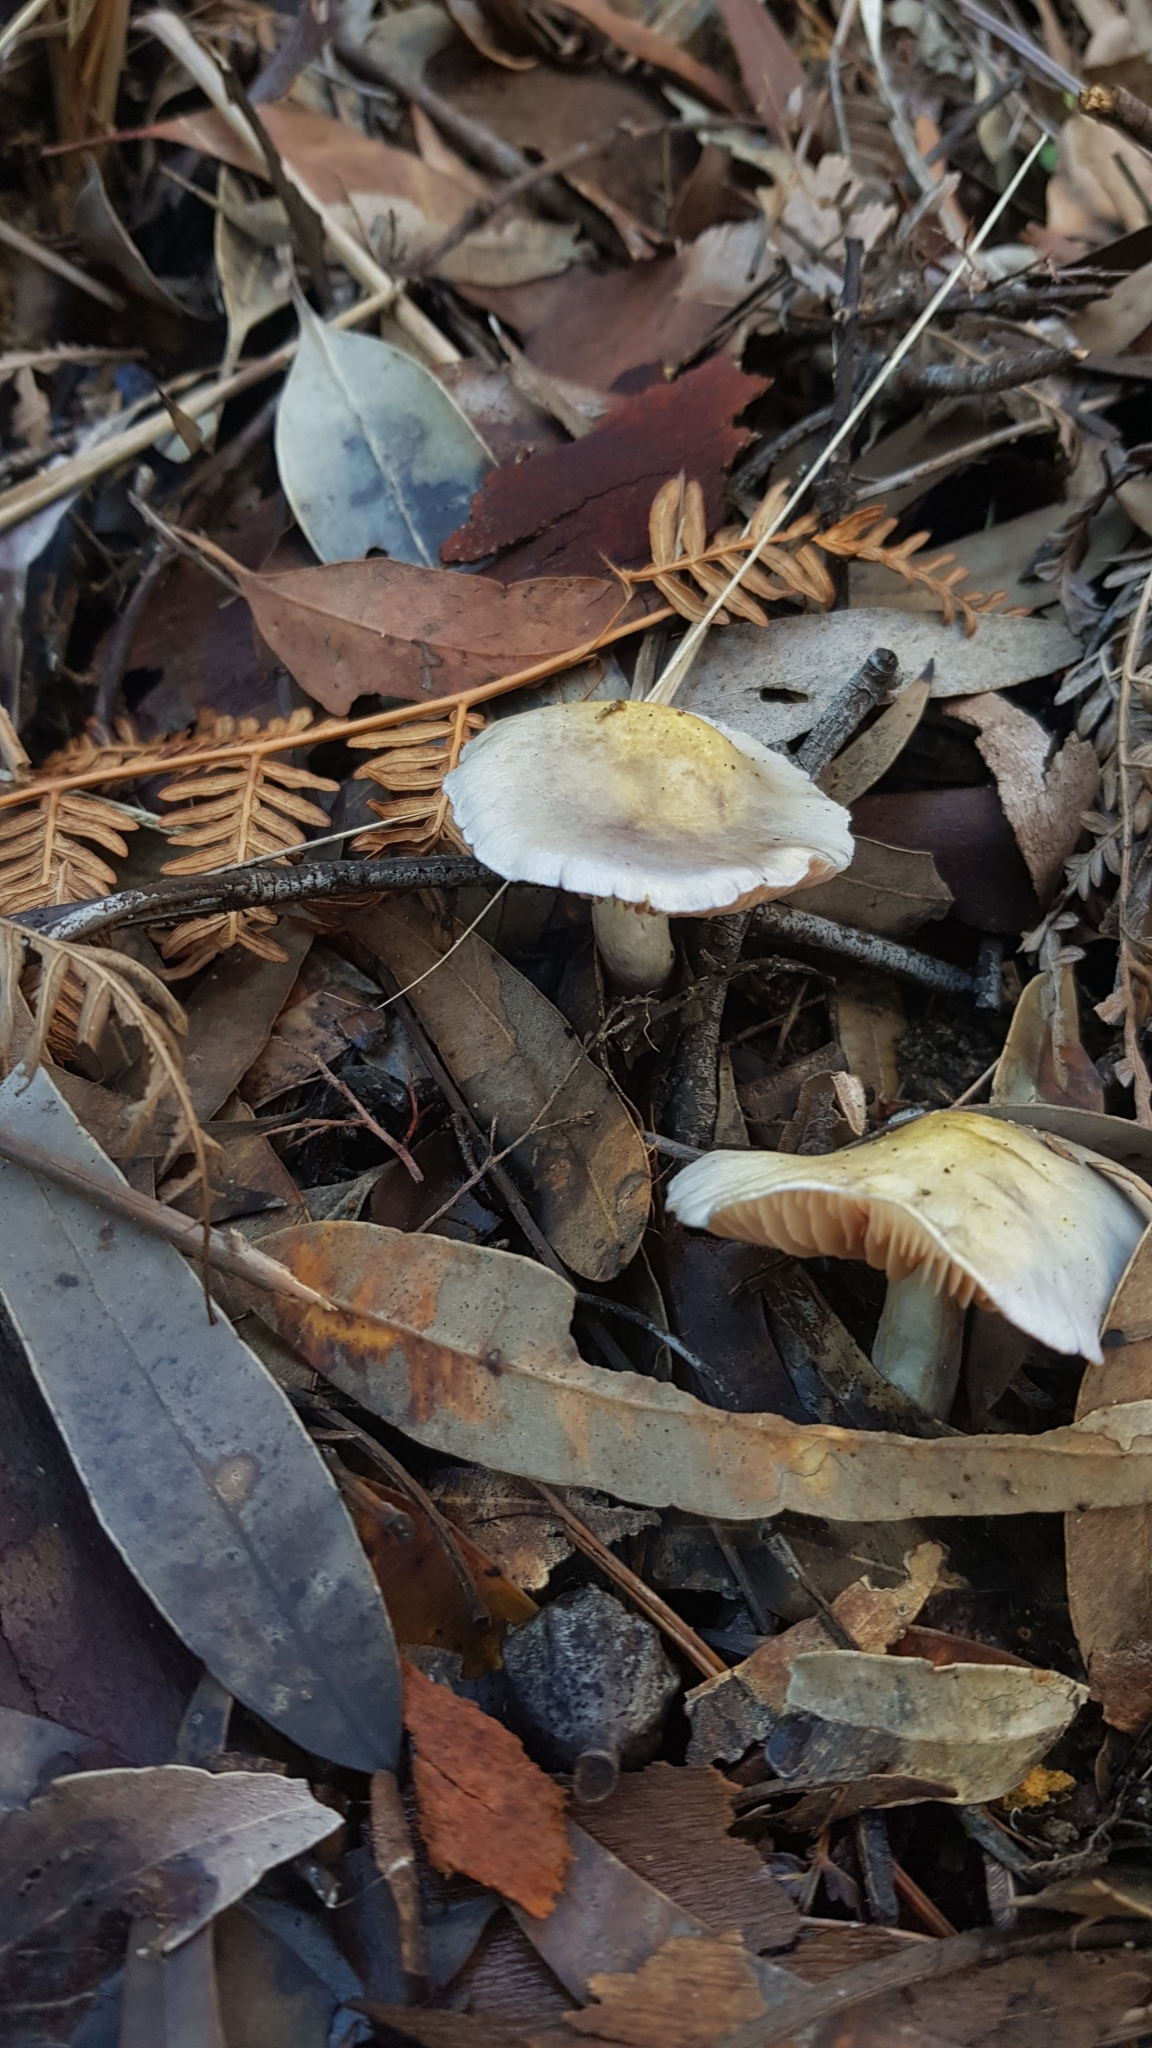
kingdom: Fungi
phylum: Basidiomycota
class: Agaricomycetes
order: Agaricales
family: Cortinariaceae
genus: Cortinarius
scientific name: Cortinarius rotundisporus
